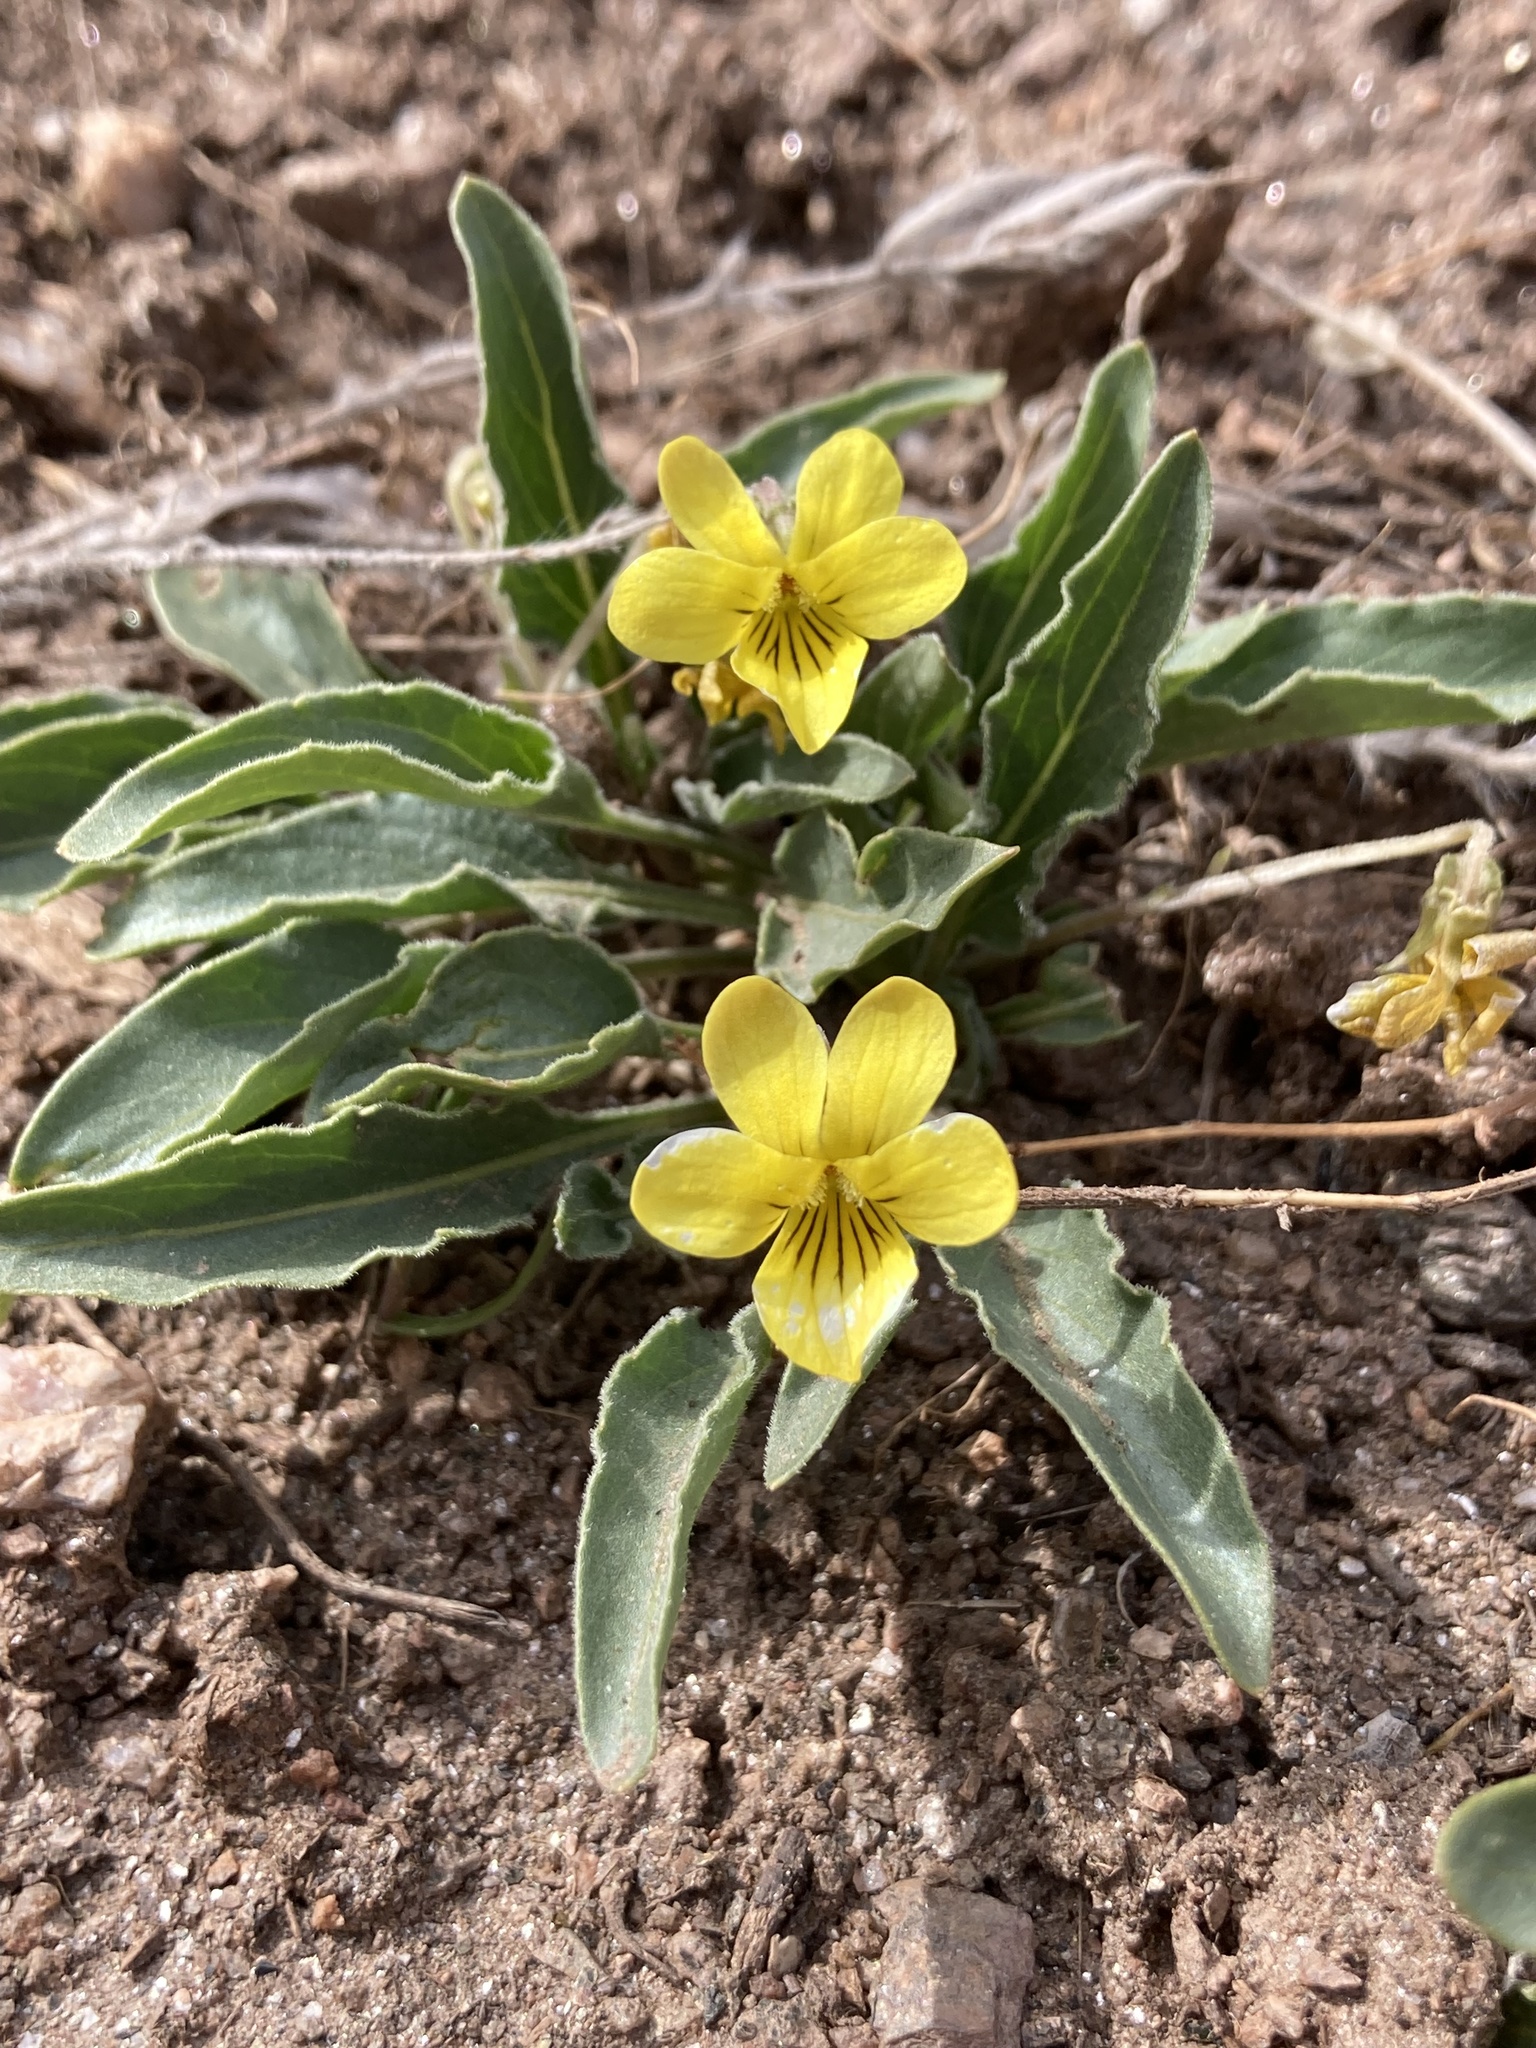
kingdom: Plantae
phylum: Tracheophyta
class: Magnoliopsida
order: Malpighiales
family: Violaceae
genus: Viola
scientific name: Viola nuttallii
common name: Yellow prairie violet
